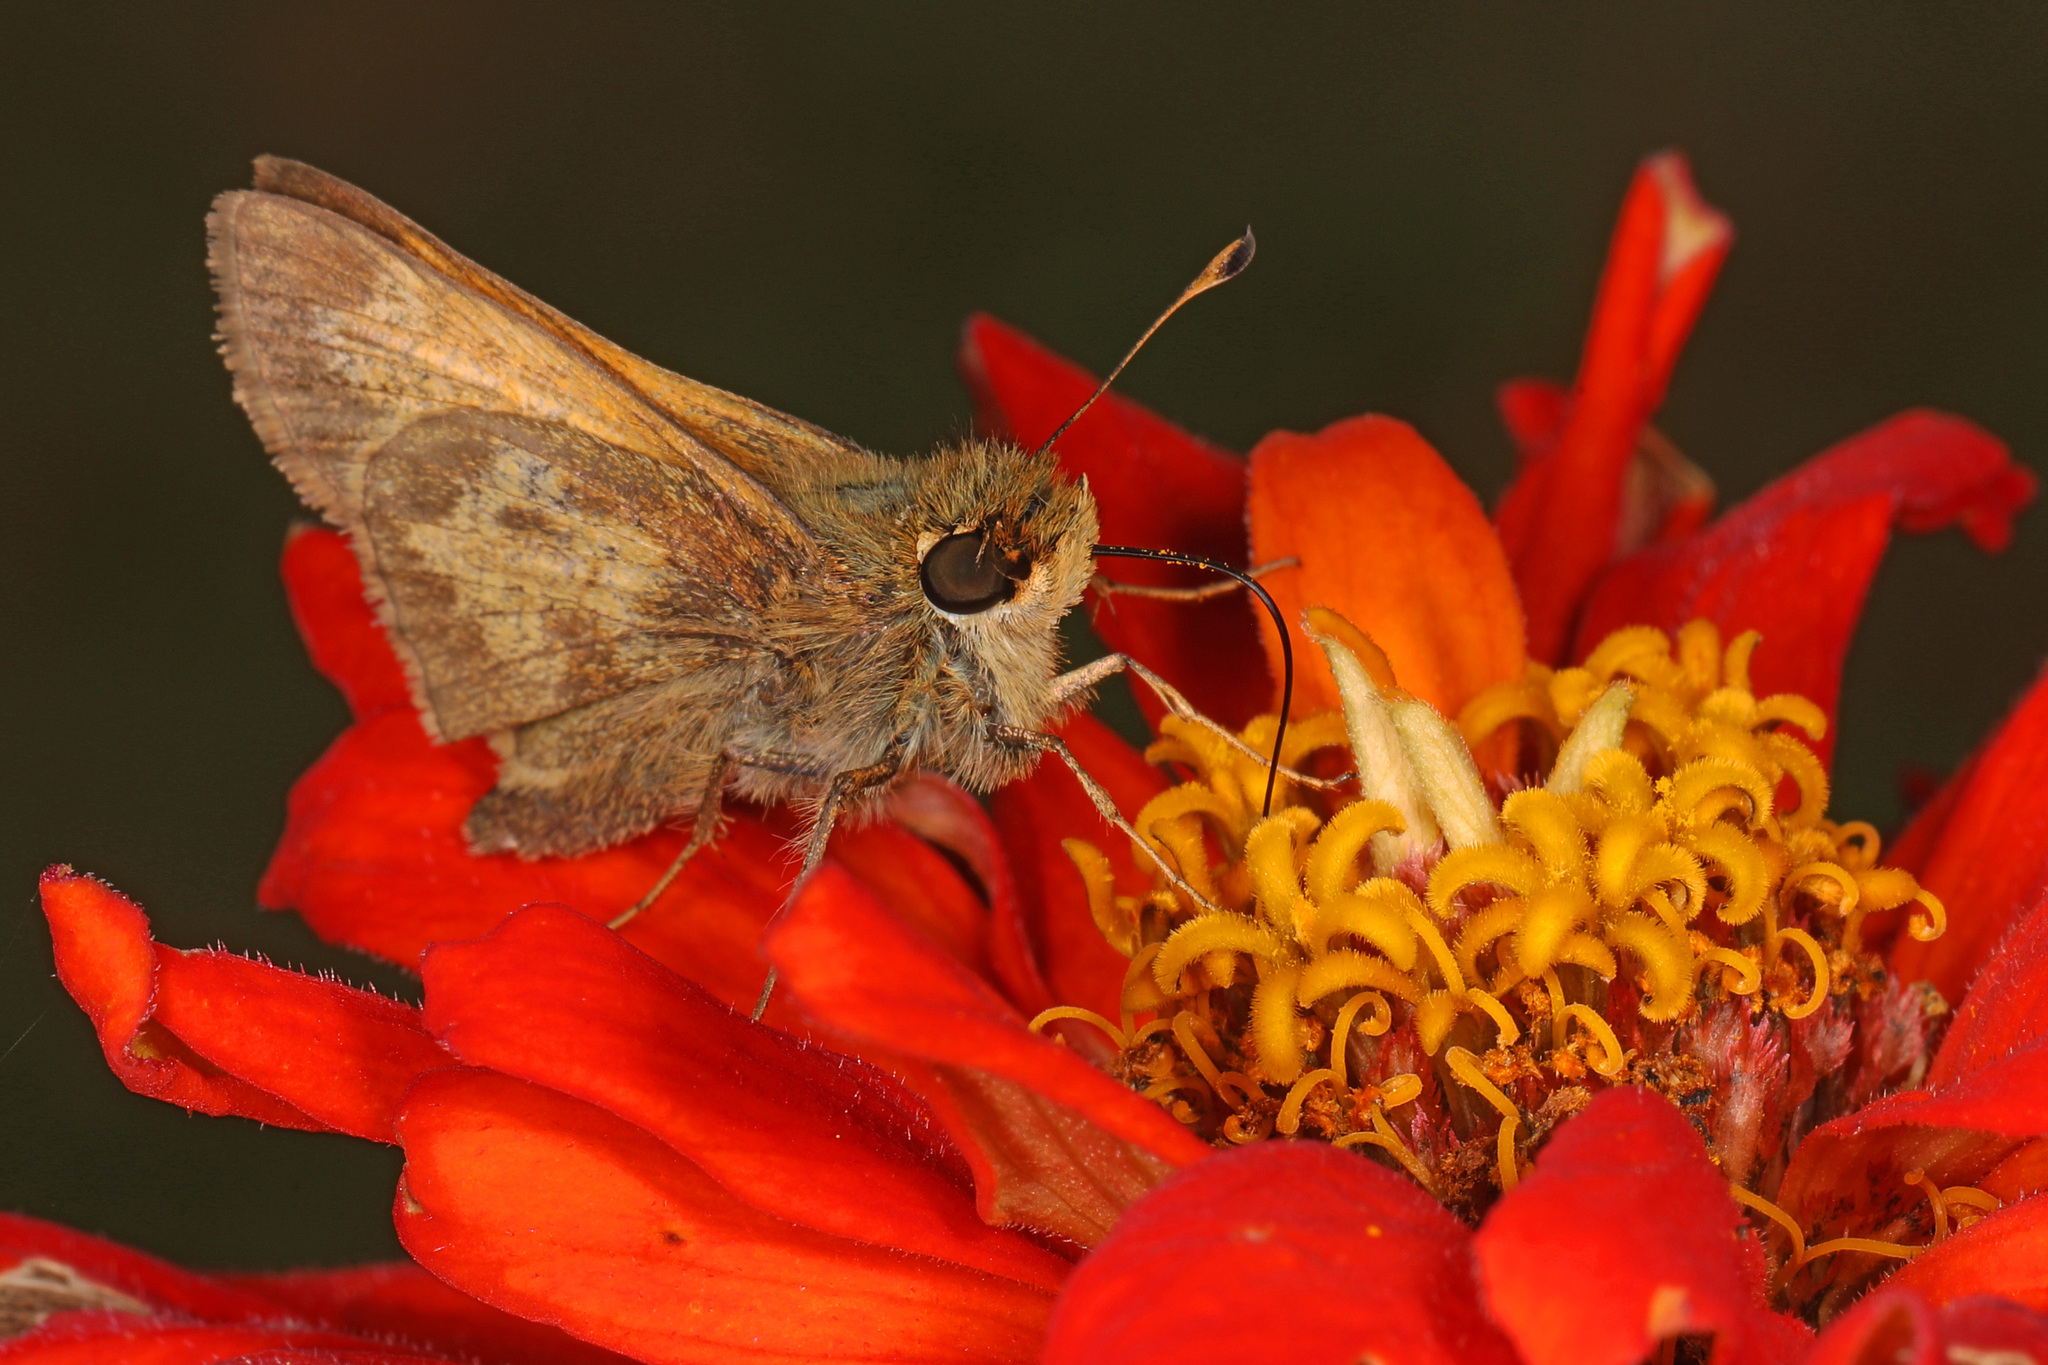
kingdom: Animalia
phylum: Arthropoda
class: Insecta
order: Lepidoptera
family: Hesperiidae
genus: Atalopedes
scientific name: Atalopedes
